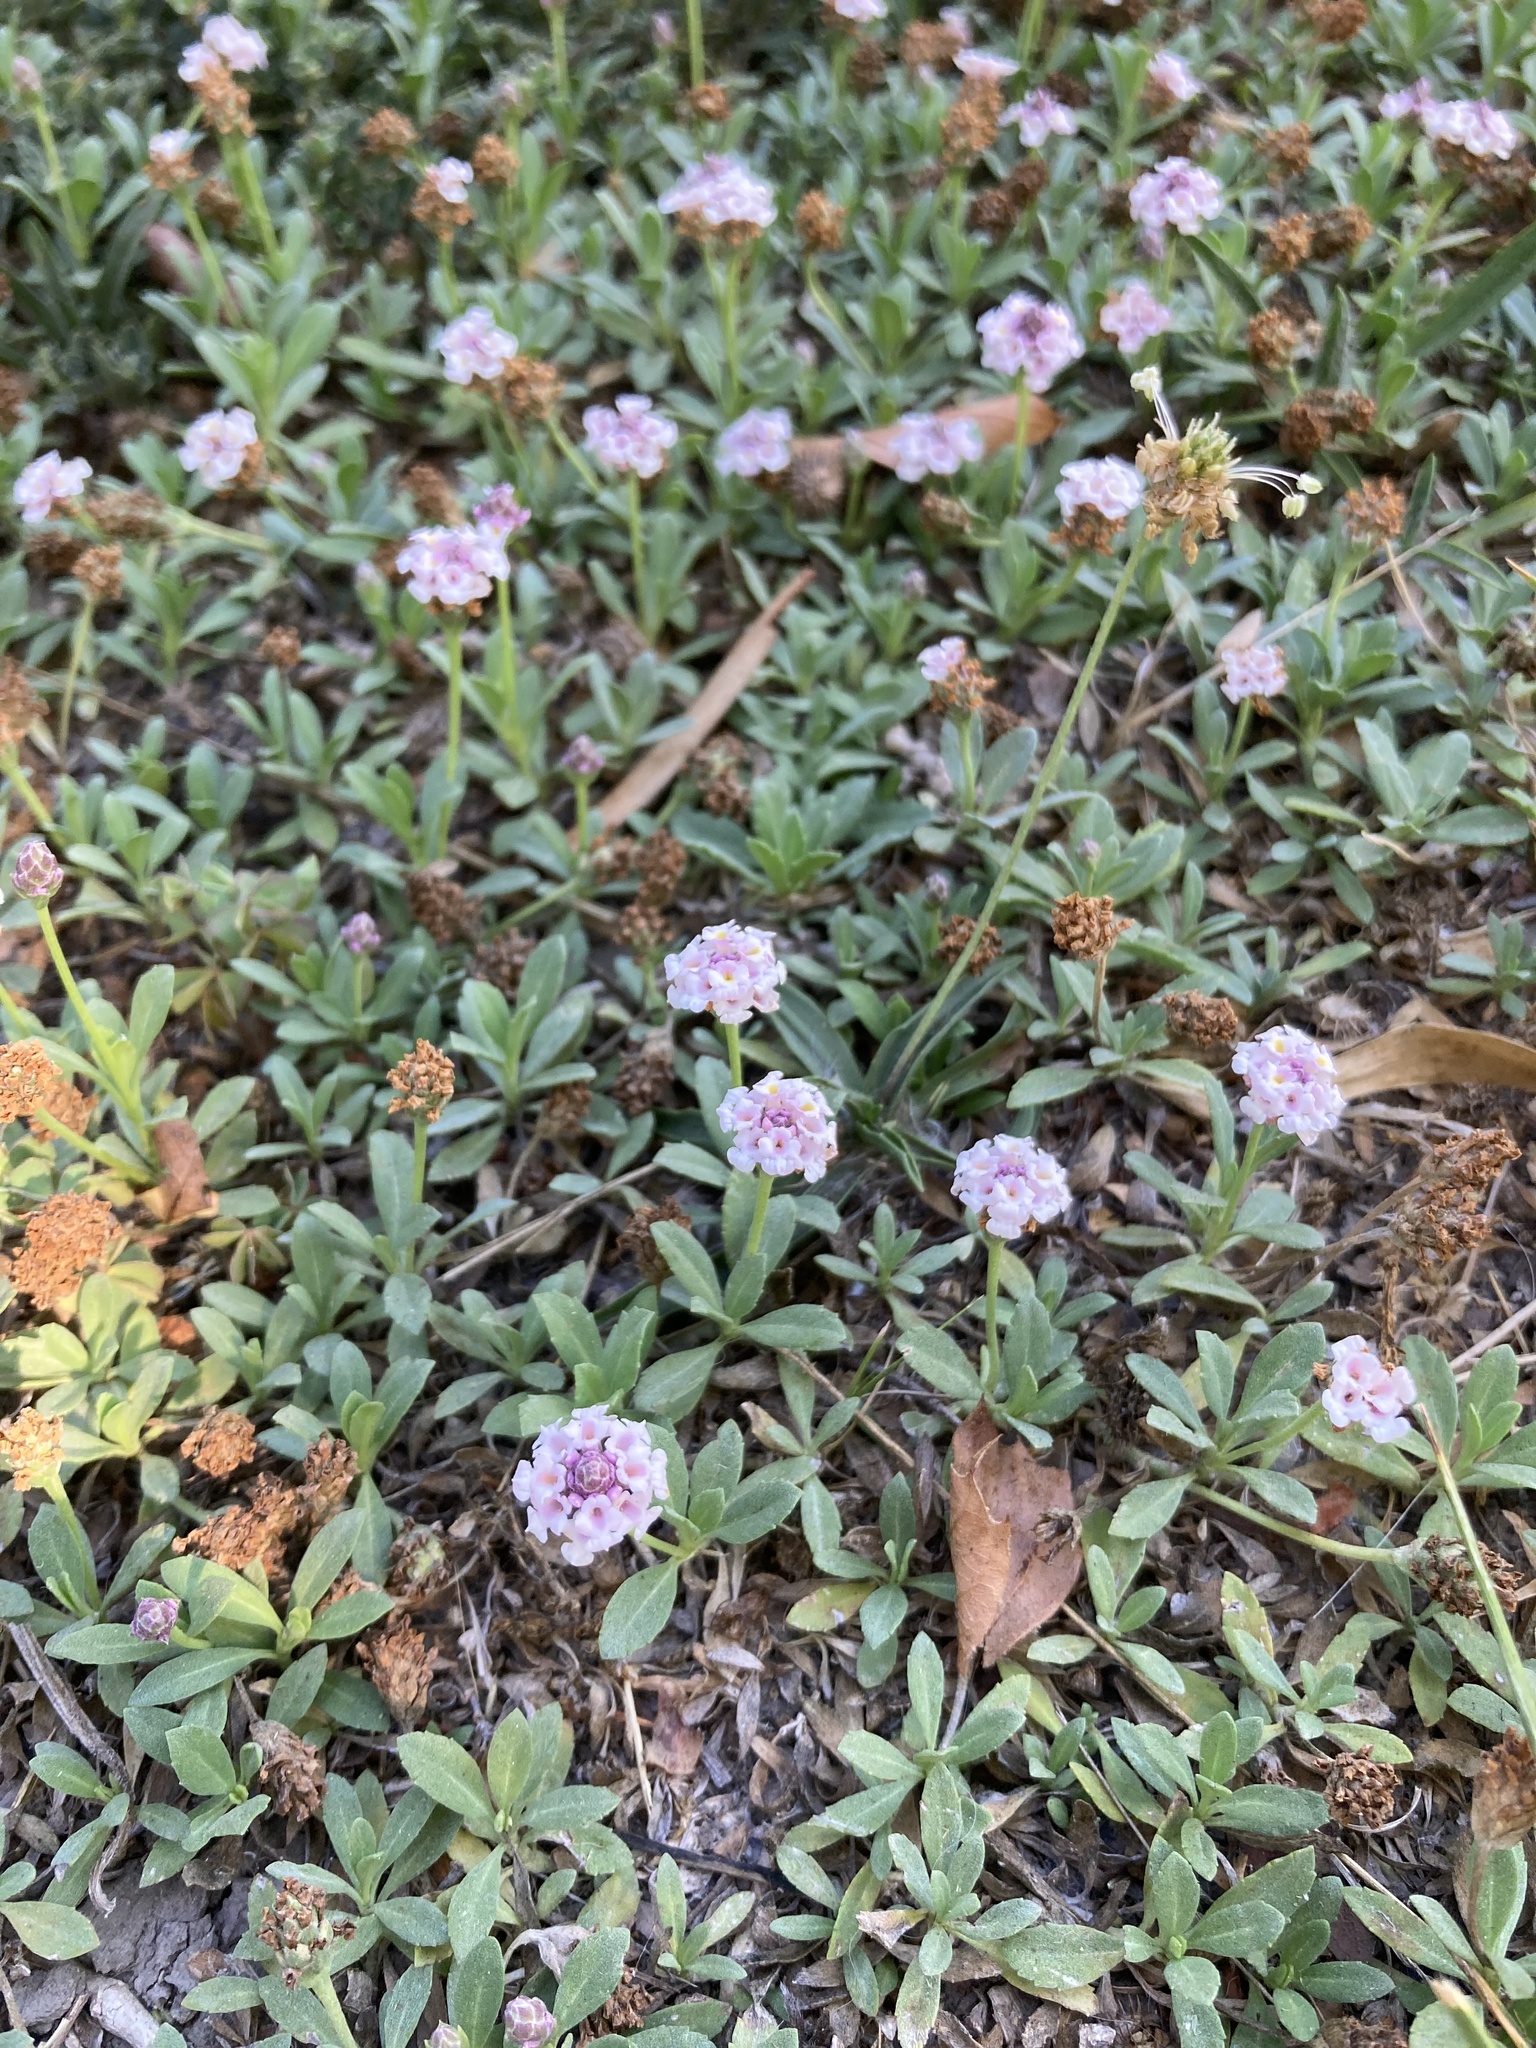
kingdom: Plantae
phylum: Tracheophyta
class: Magnoliopsida
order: Lamiales
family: Verbenaceae
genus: Phyla
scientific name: Phyla nodiflora
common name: Frogfruit
